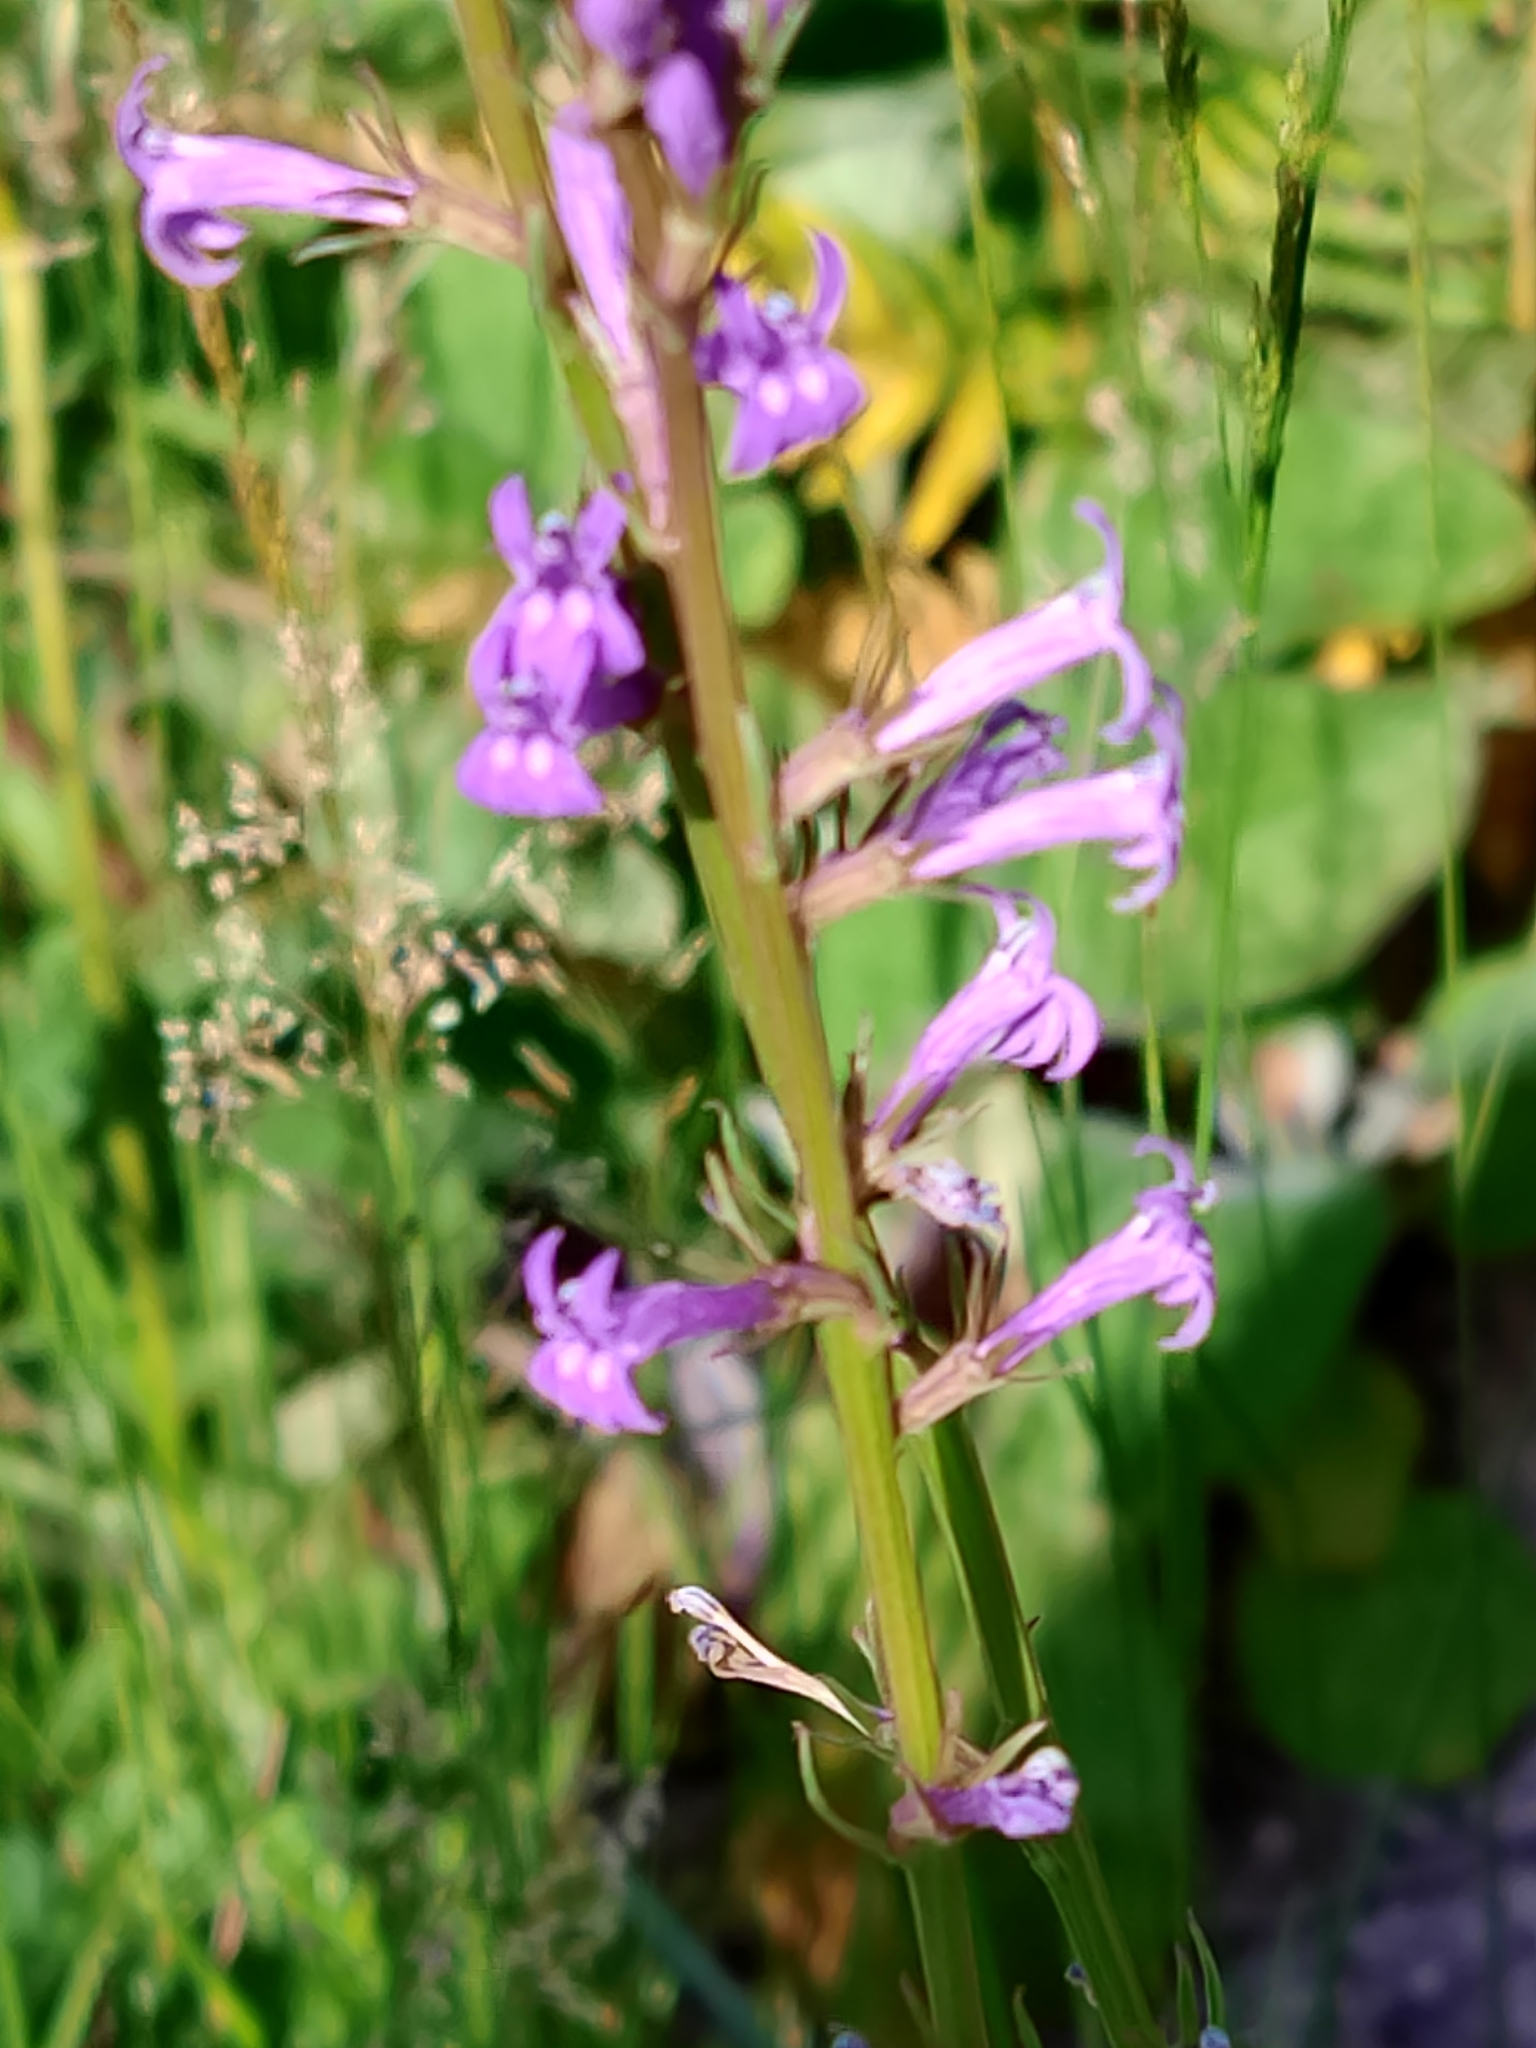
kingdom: Plantae
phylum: Tracheophyta
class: Magnoliopsida
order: Asterales
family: Campanulaceae
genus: Lobelia
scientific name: Lobelia urens
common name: Heath lobelia
